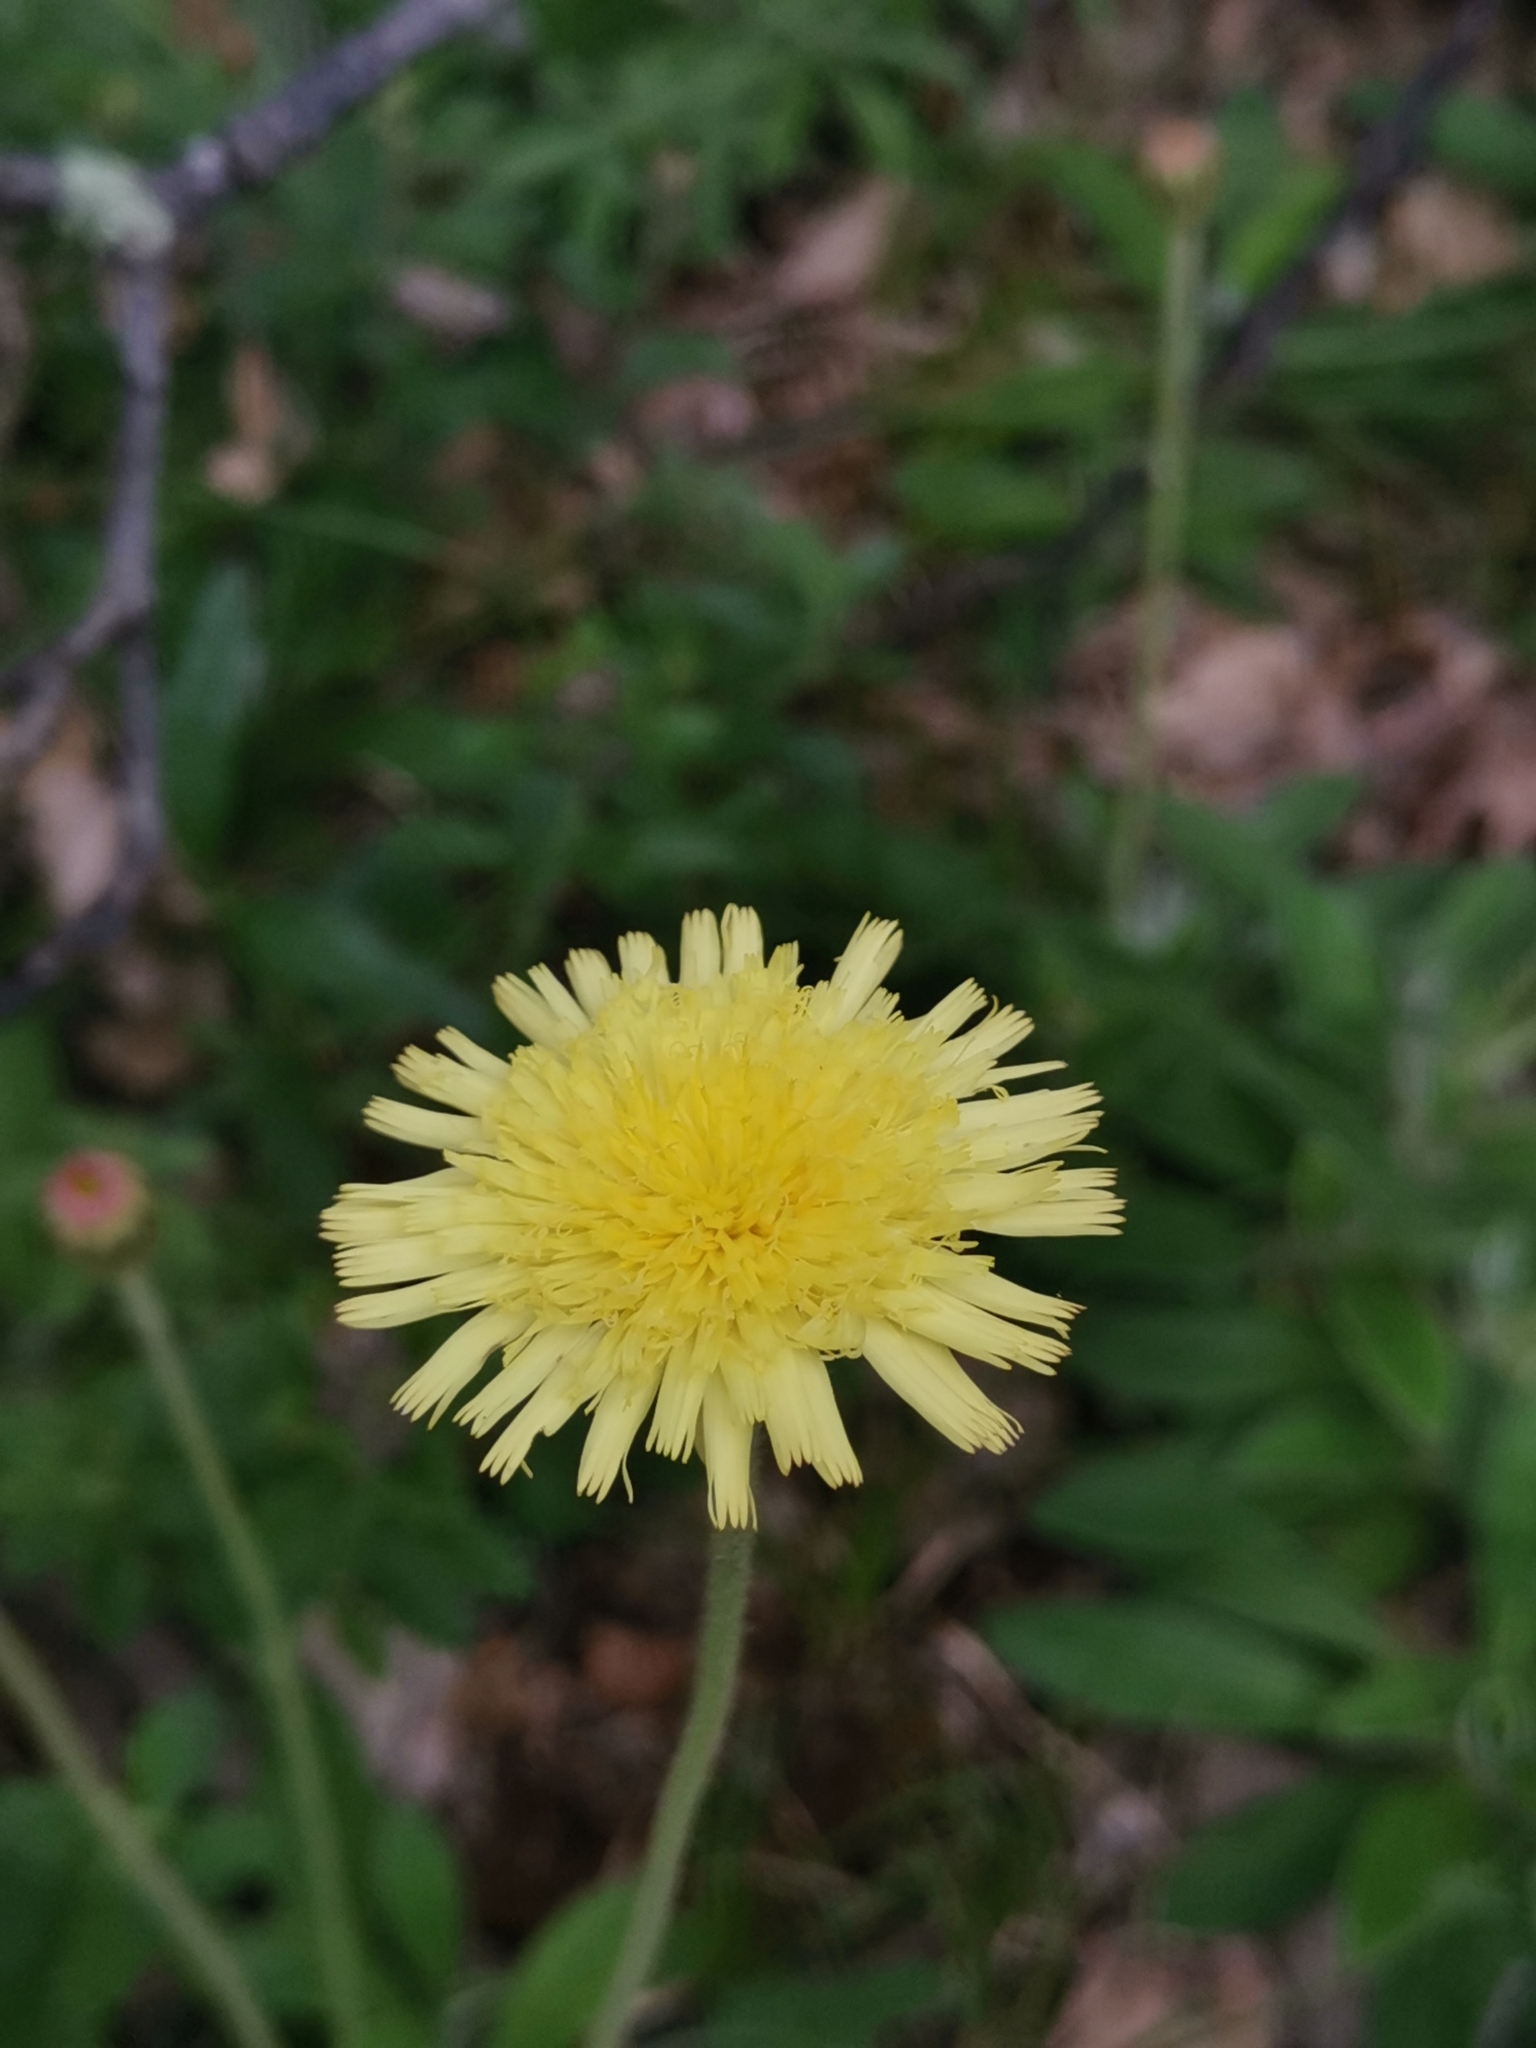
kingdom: Plantae
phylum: Tracheophyta
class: Magnoliopsida
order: Asterales
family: Asteraceae
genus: Pilosella
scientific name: Pilosella hoppeana
